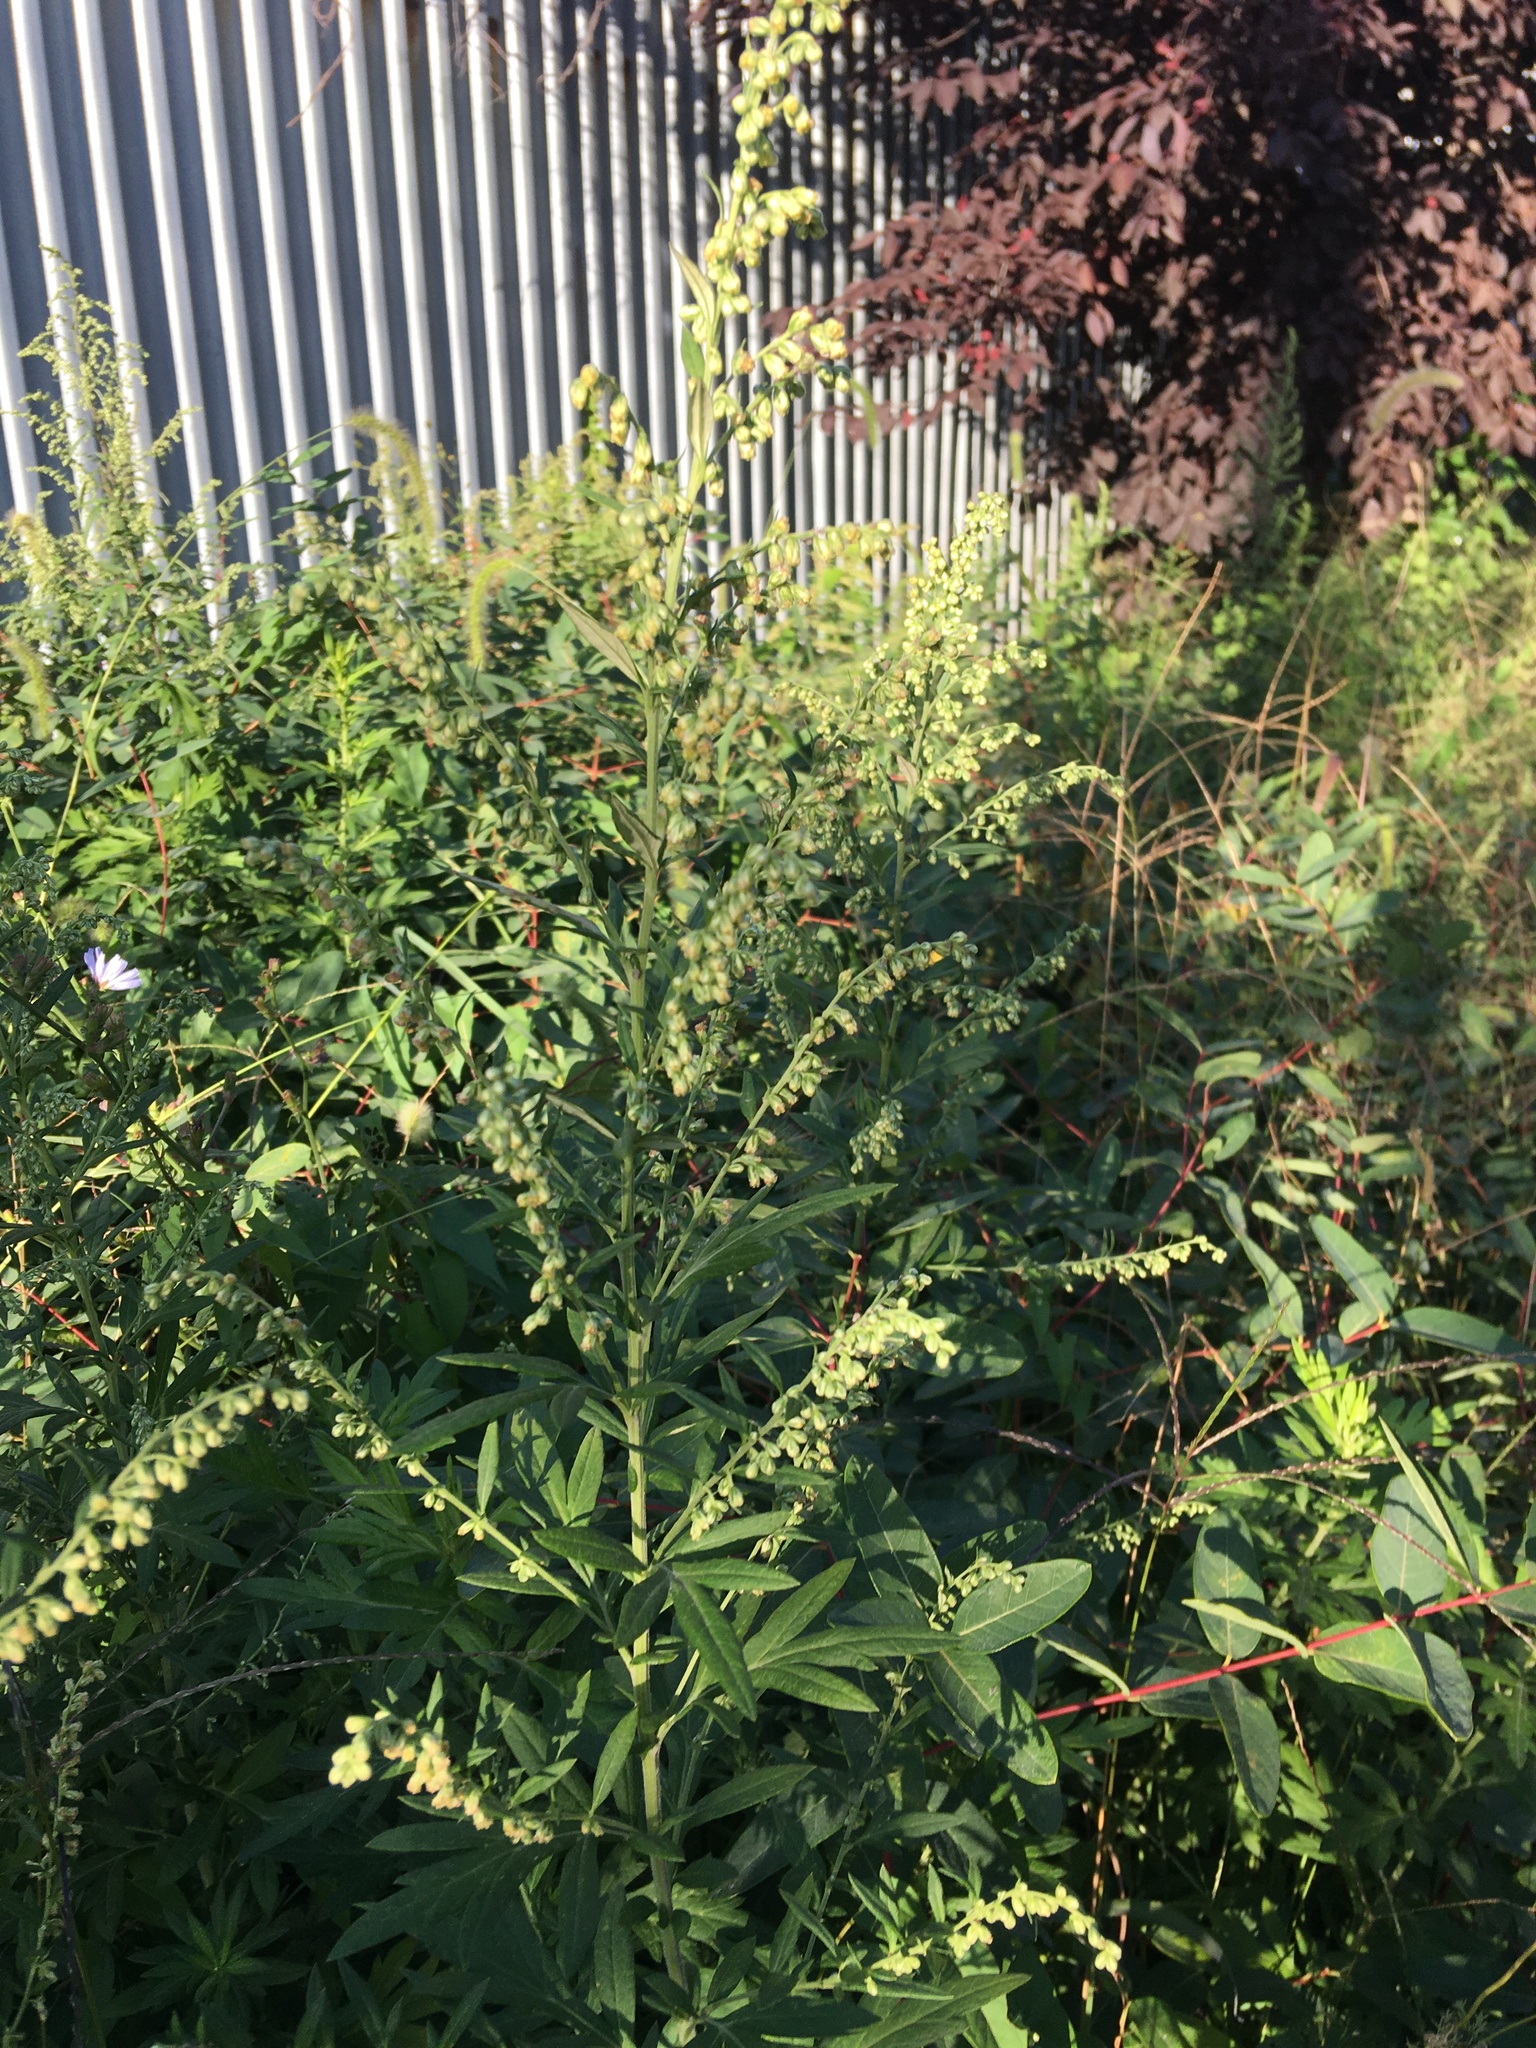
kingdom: Plantae
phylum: Tracheophyta
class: Magnoliopsida
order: Asterales
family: Asteraceae
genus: Artemisia
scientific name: Artemisia vulgaris
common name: Mugwort
